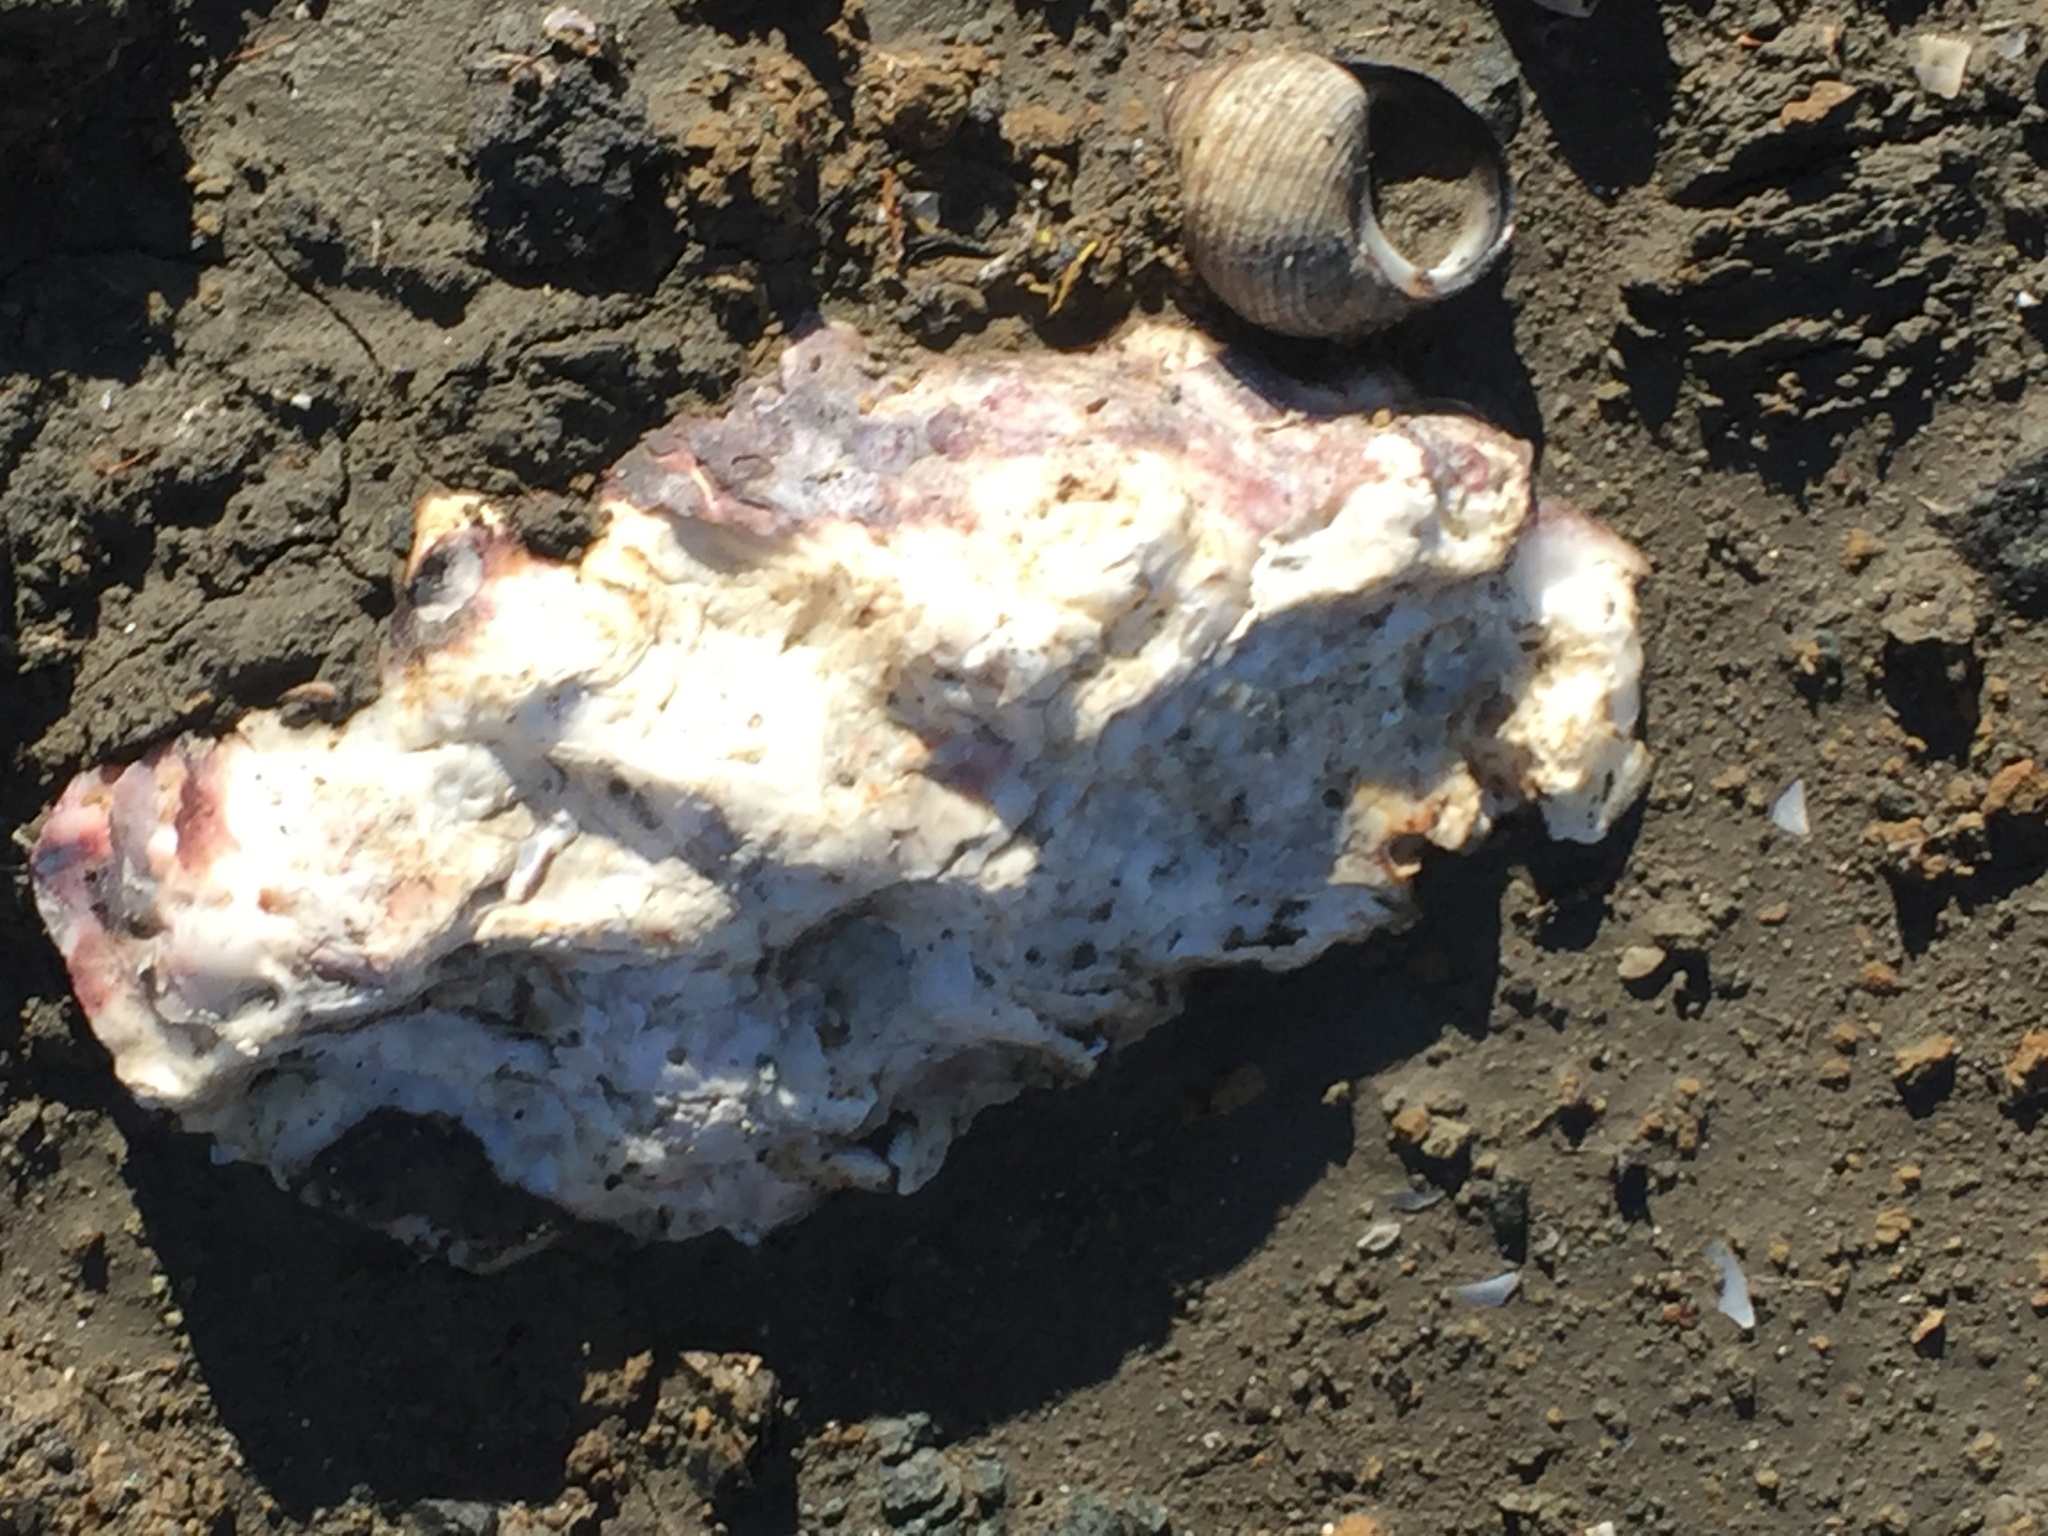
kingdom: Animalia
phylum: Mollusca
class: Bivalvia
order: Ostreida
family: Ostreidae
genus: Magallana
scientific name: Magallana gigas
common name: Pacific oyster
